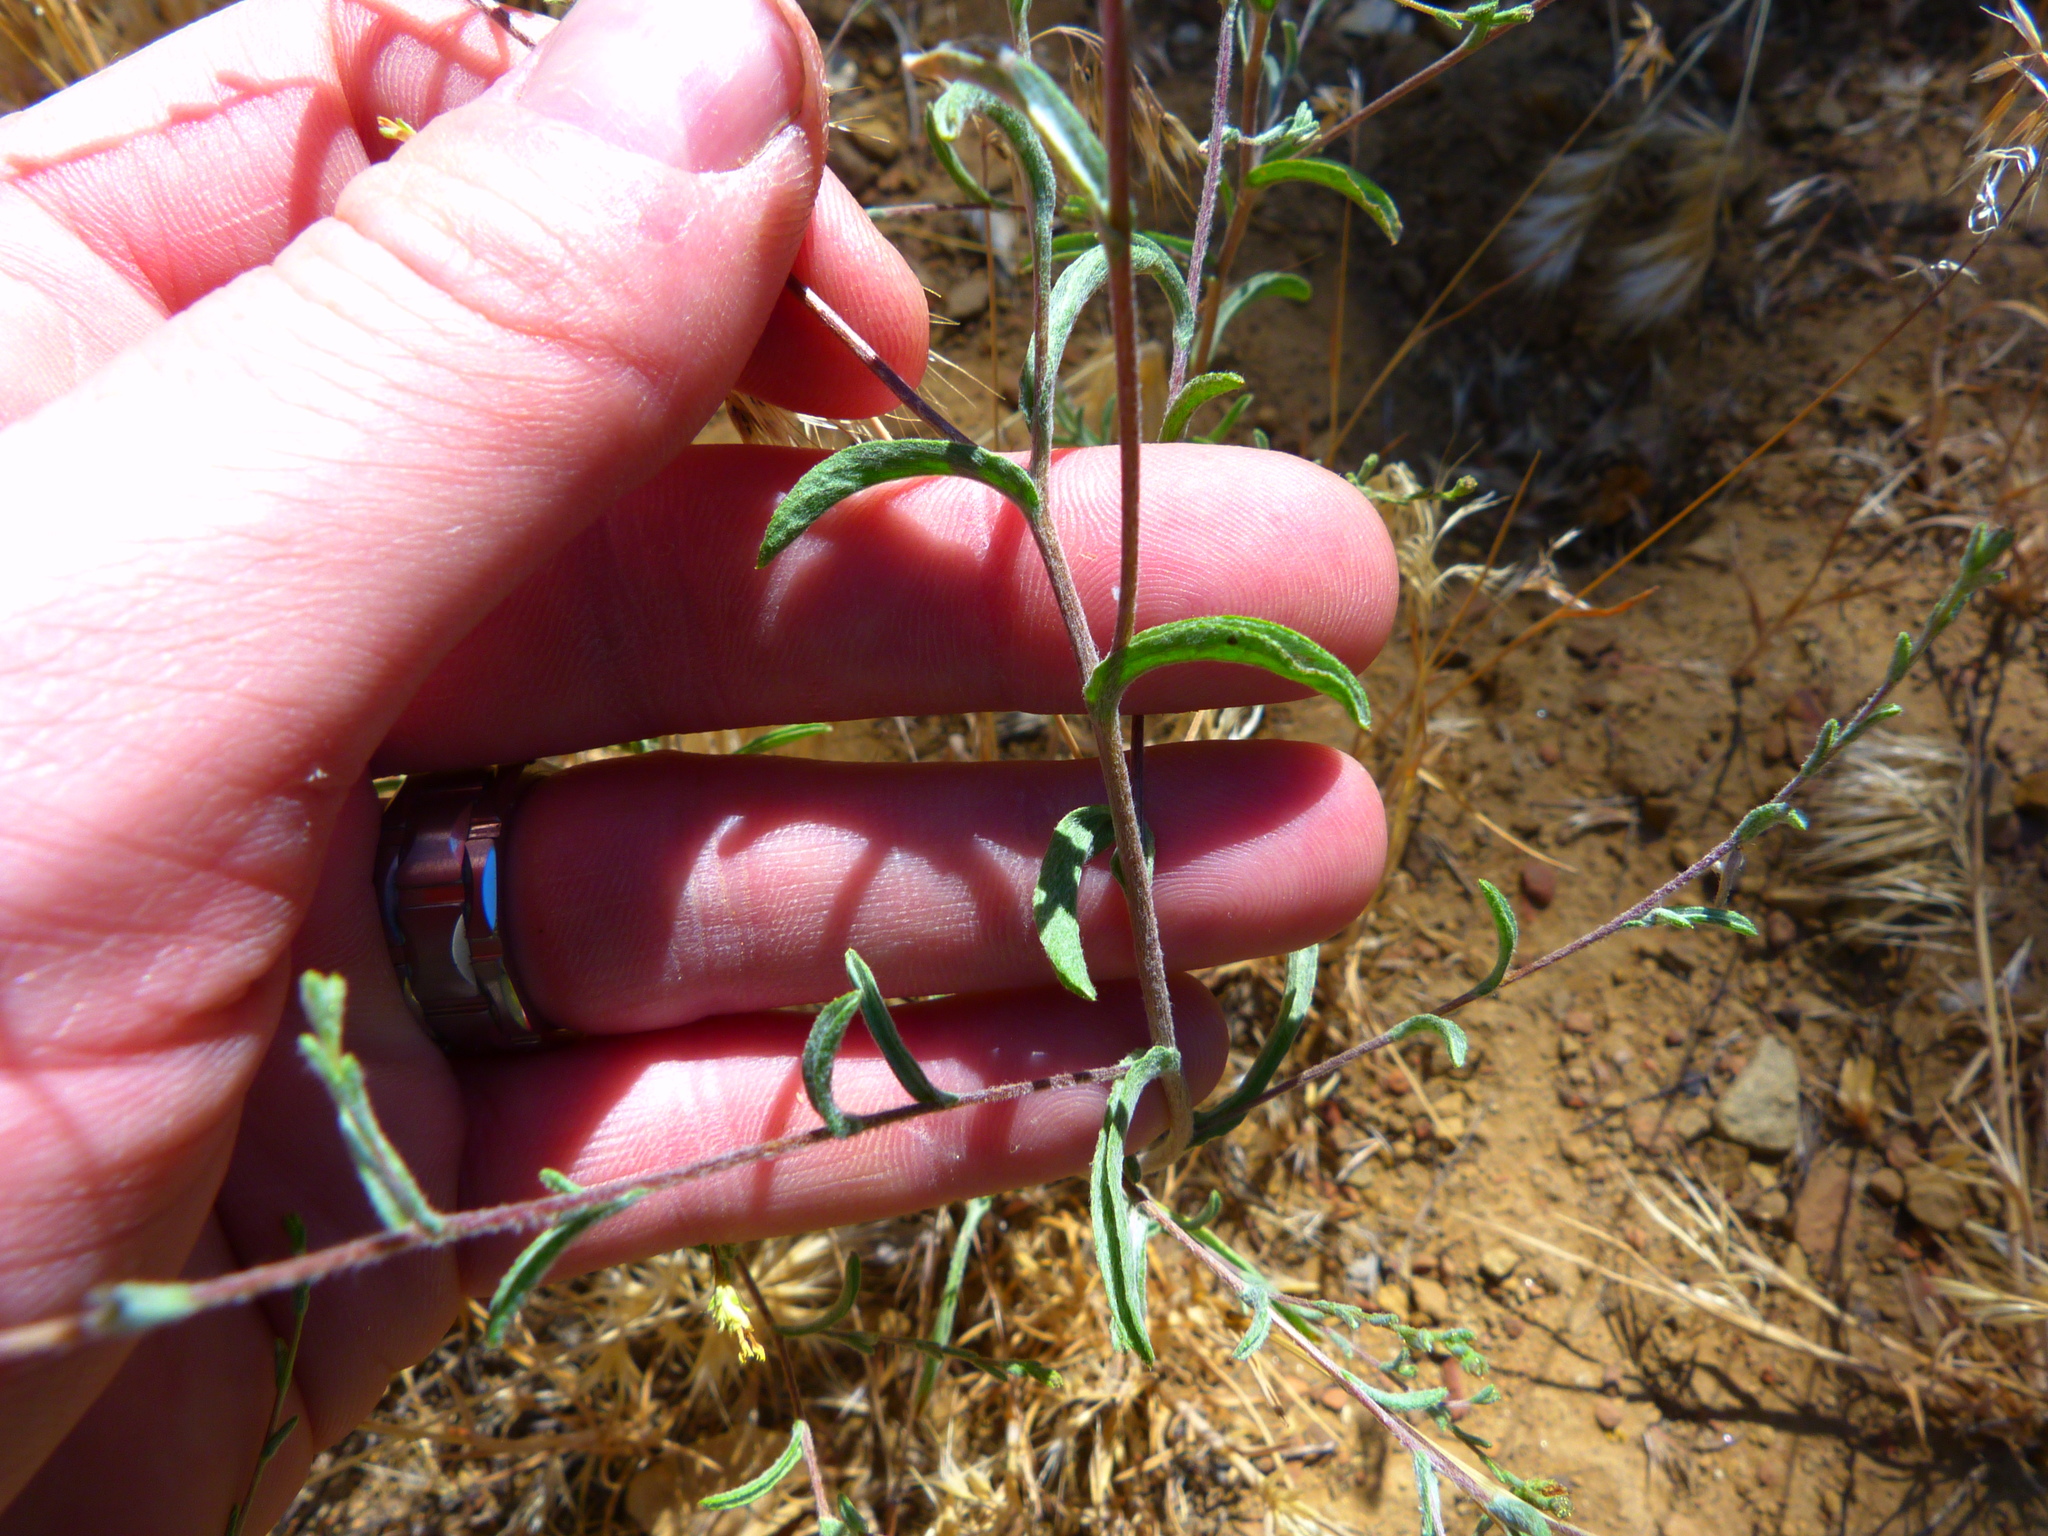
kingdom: Plantae
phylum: Tracheophyta
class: Magnoliopsida
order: Asterales
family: Asteraceae
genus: Lessingia
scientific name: Lessingia glandulifera
